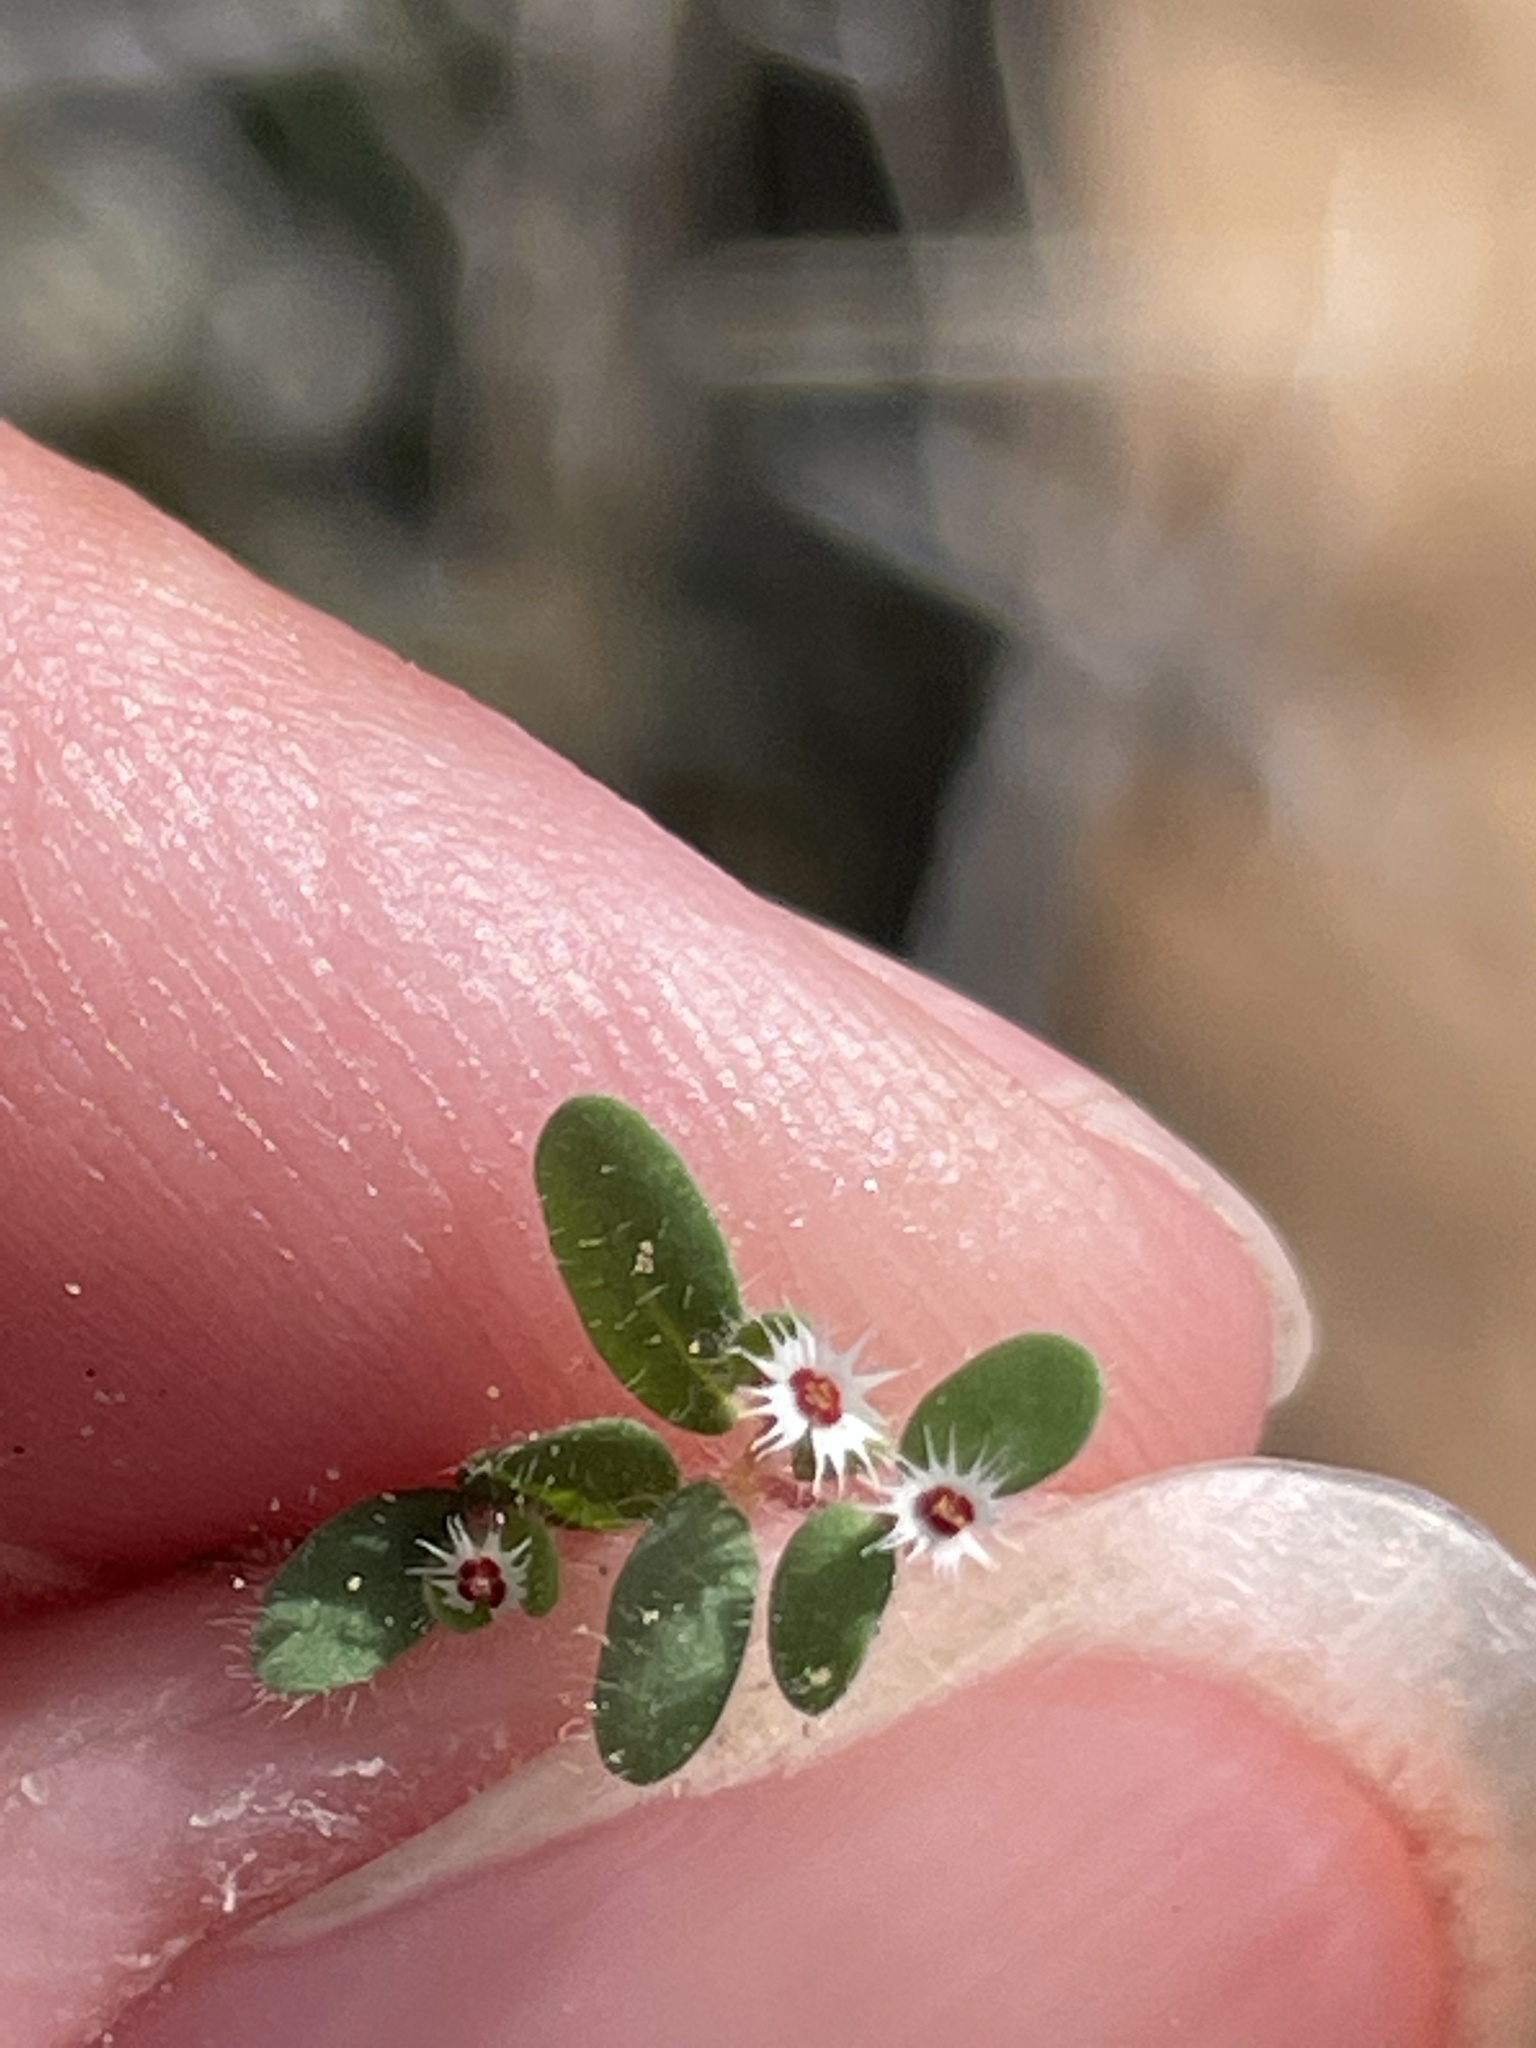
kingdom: Plantae
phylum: Tracheophyta
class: Magnoliopsida
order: Malpighiales
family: Euphorbiaceae
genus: Euphorbia
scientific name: Euphorbia setiloba
